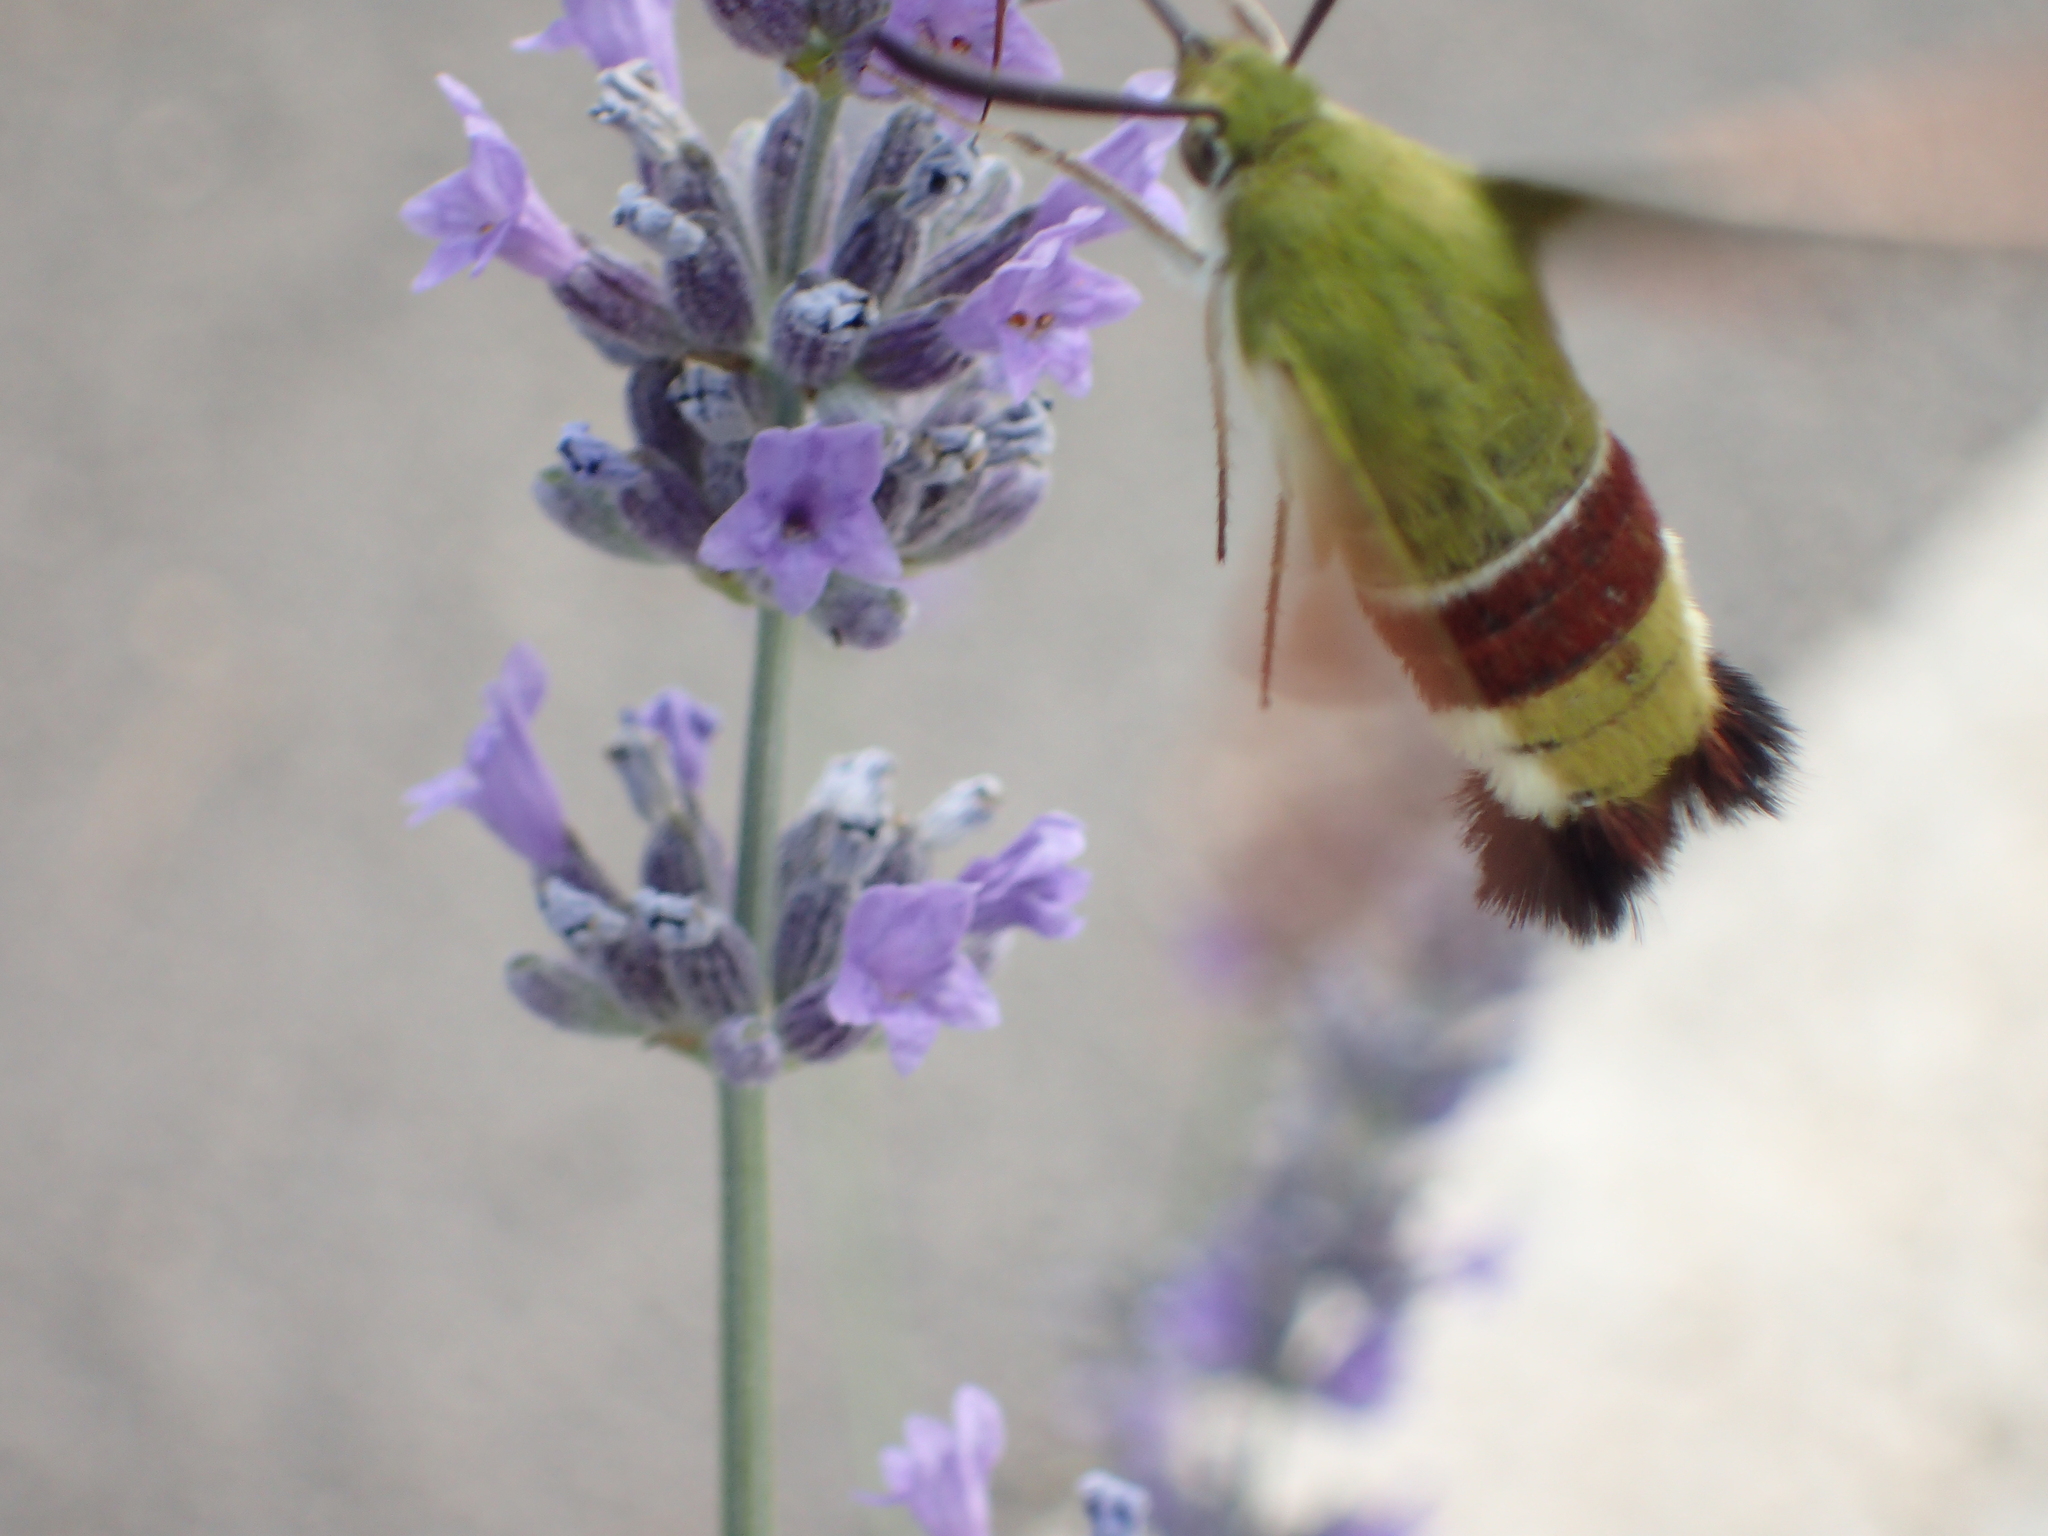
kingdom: Animalia
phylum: Arthropoda
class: Insecta
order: Lepidoptera
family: Sphingidae
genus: Hemaris
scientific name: Hemaris croatica
